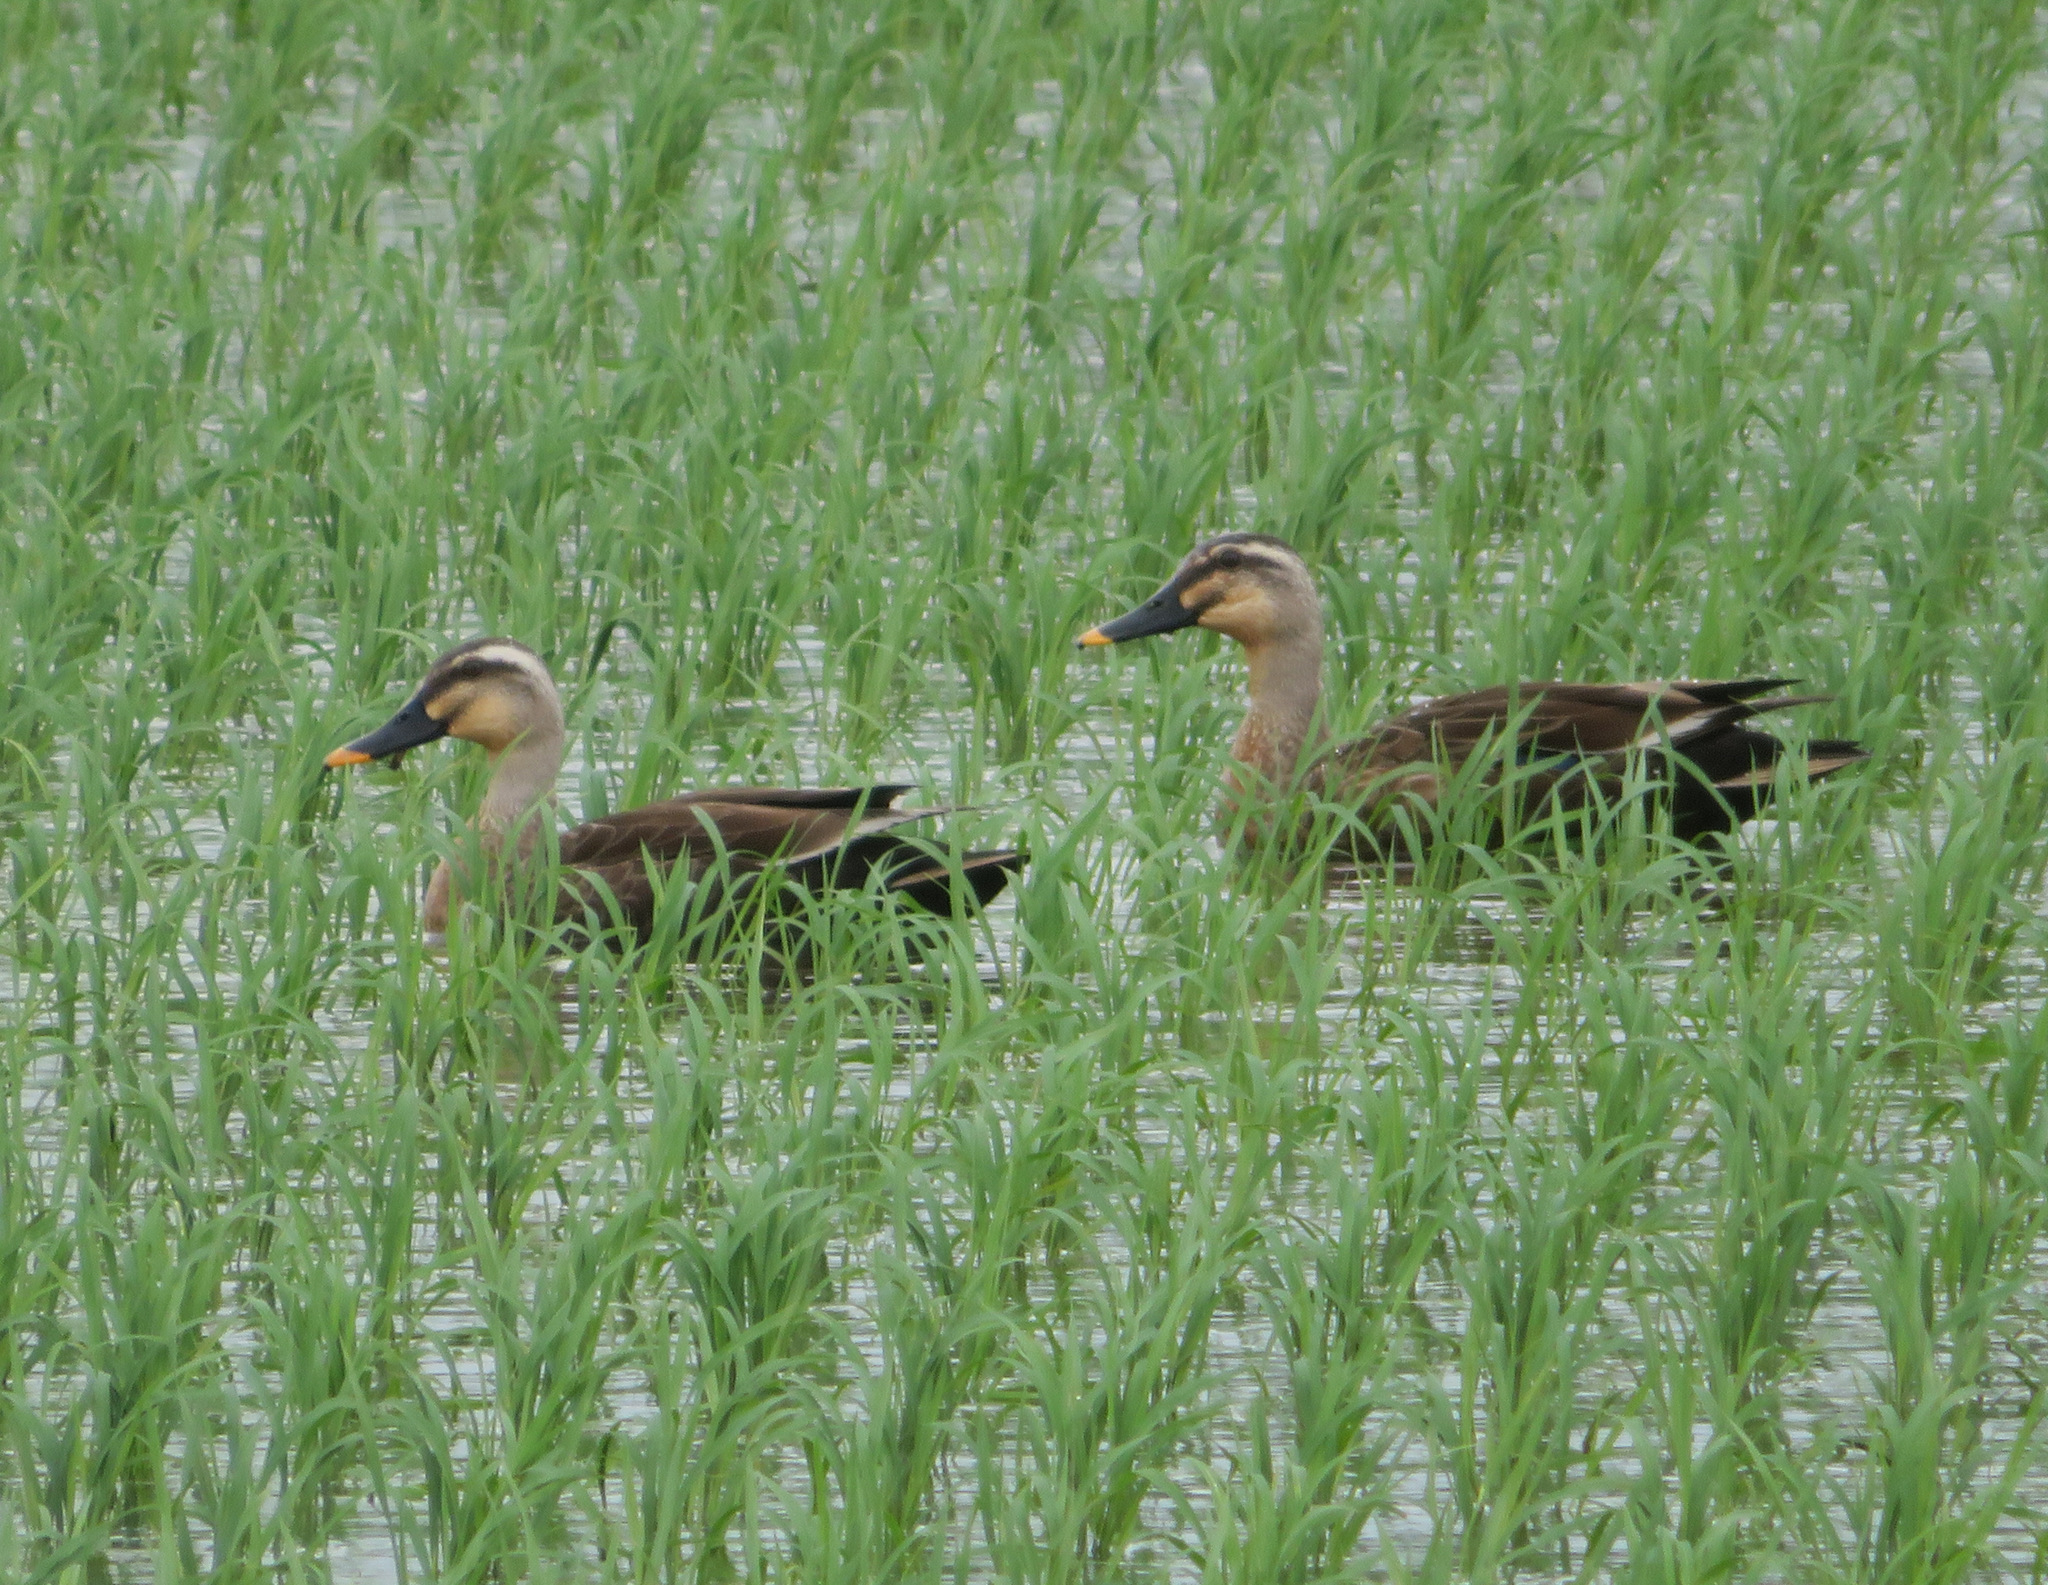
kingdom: Animalia
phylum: Chordata
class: Aves
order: Anseriformes
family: Anatidae
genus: Anas
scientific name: Anas zonorhyncha
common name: Eastern spot-billed duck
